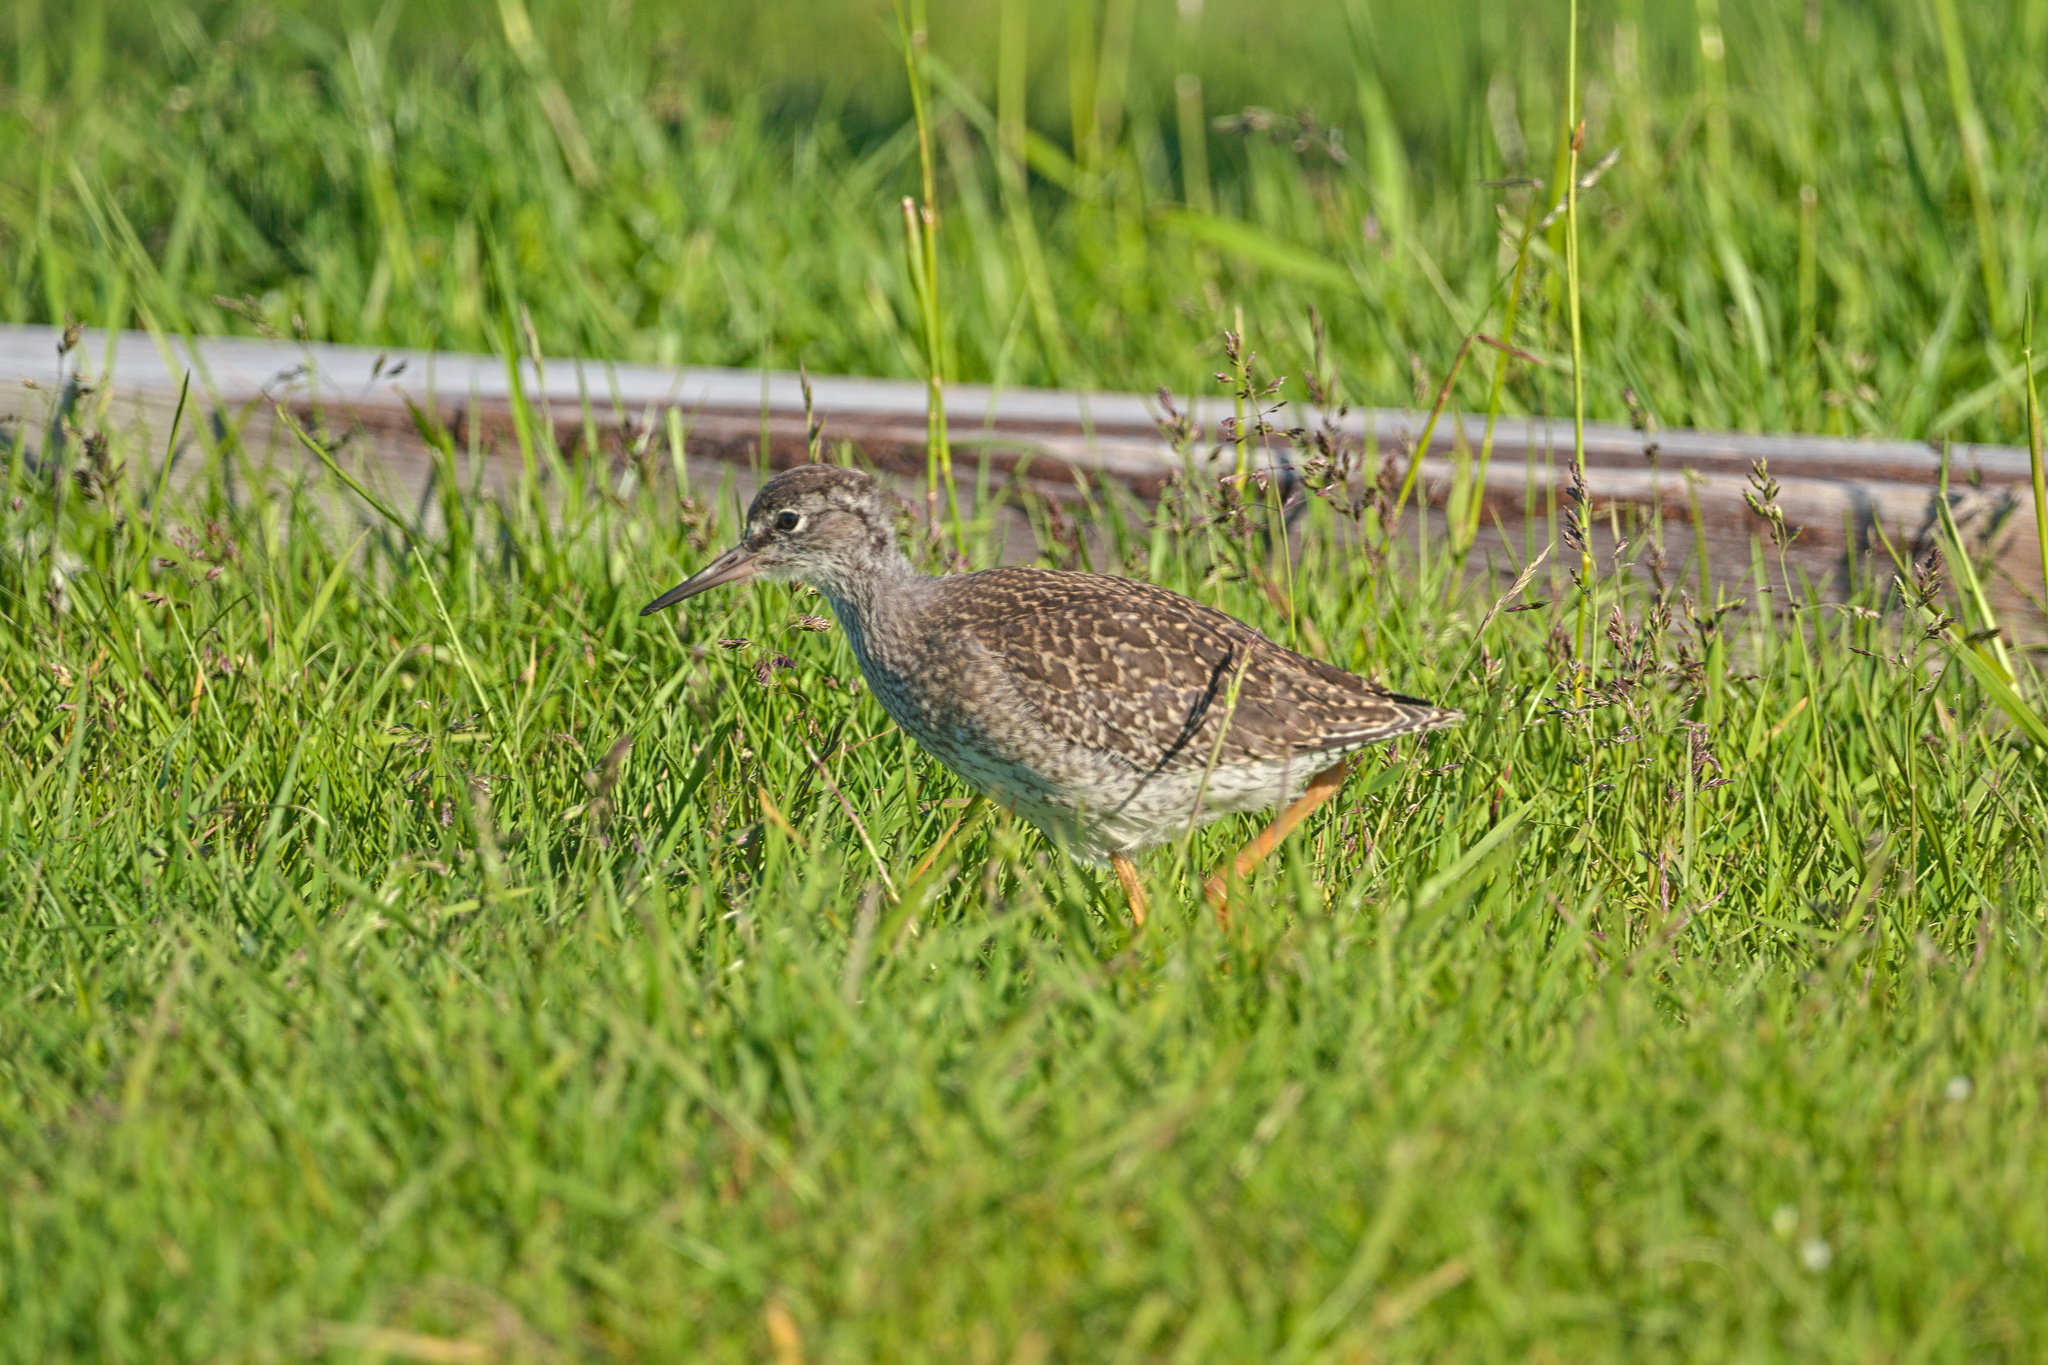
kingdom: Animalia
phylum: Chordata
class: Aves
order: Charadriiformes
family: Scolopacidae
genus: Tringa
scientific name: Tringa totanus
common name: Common redshank
